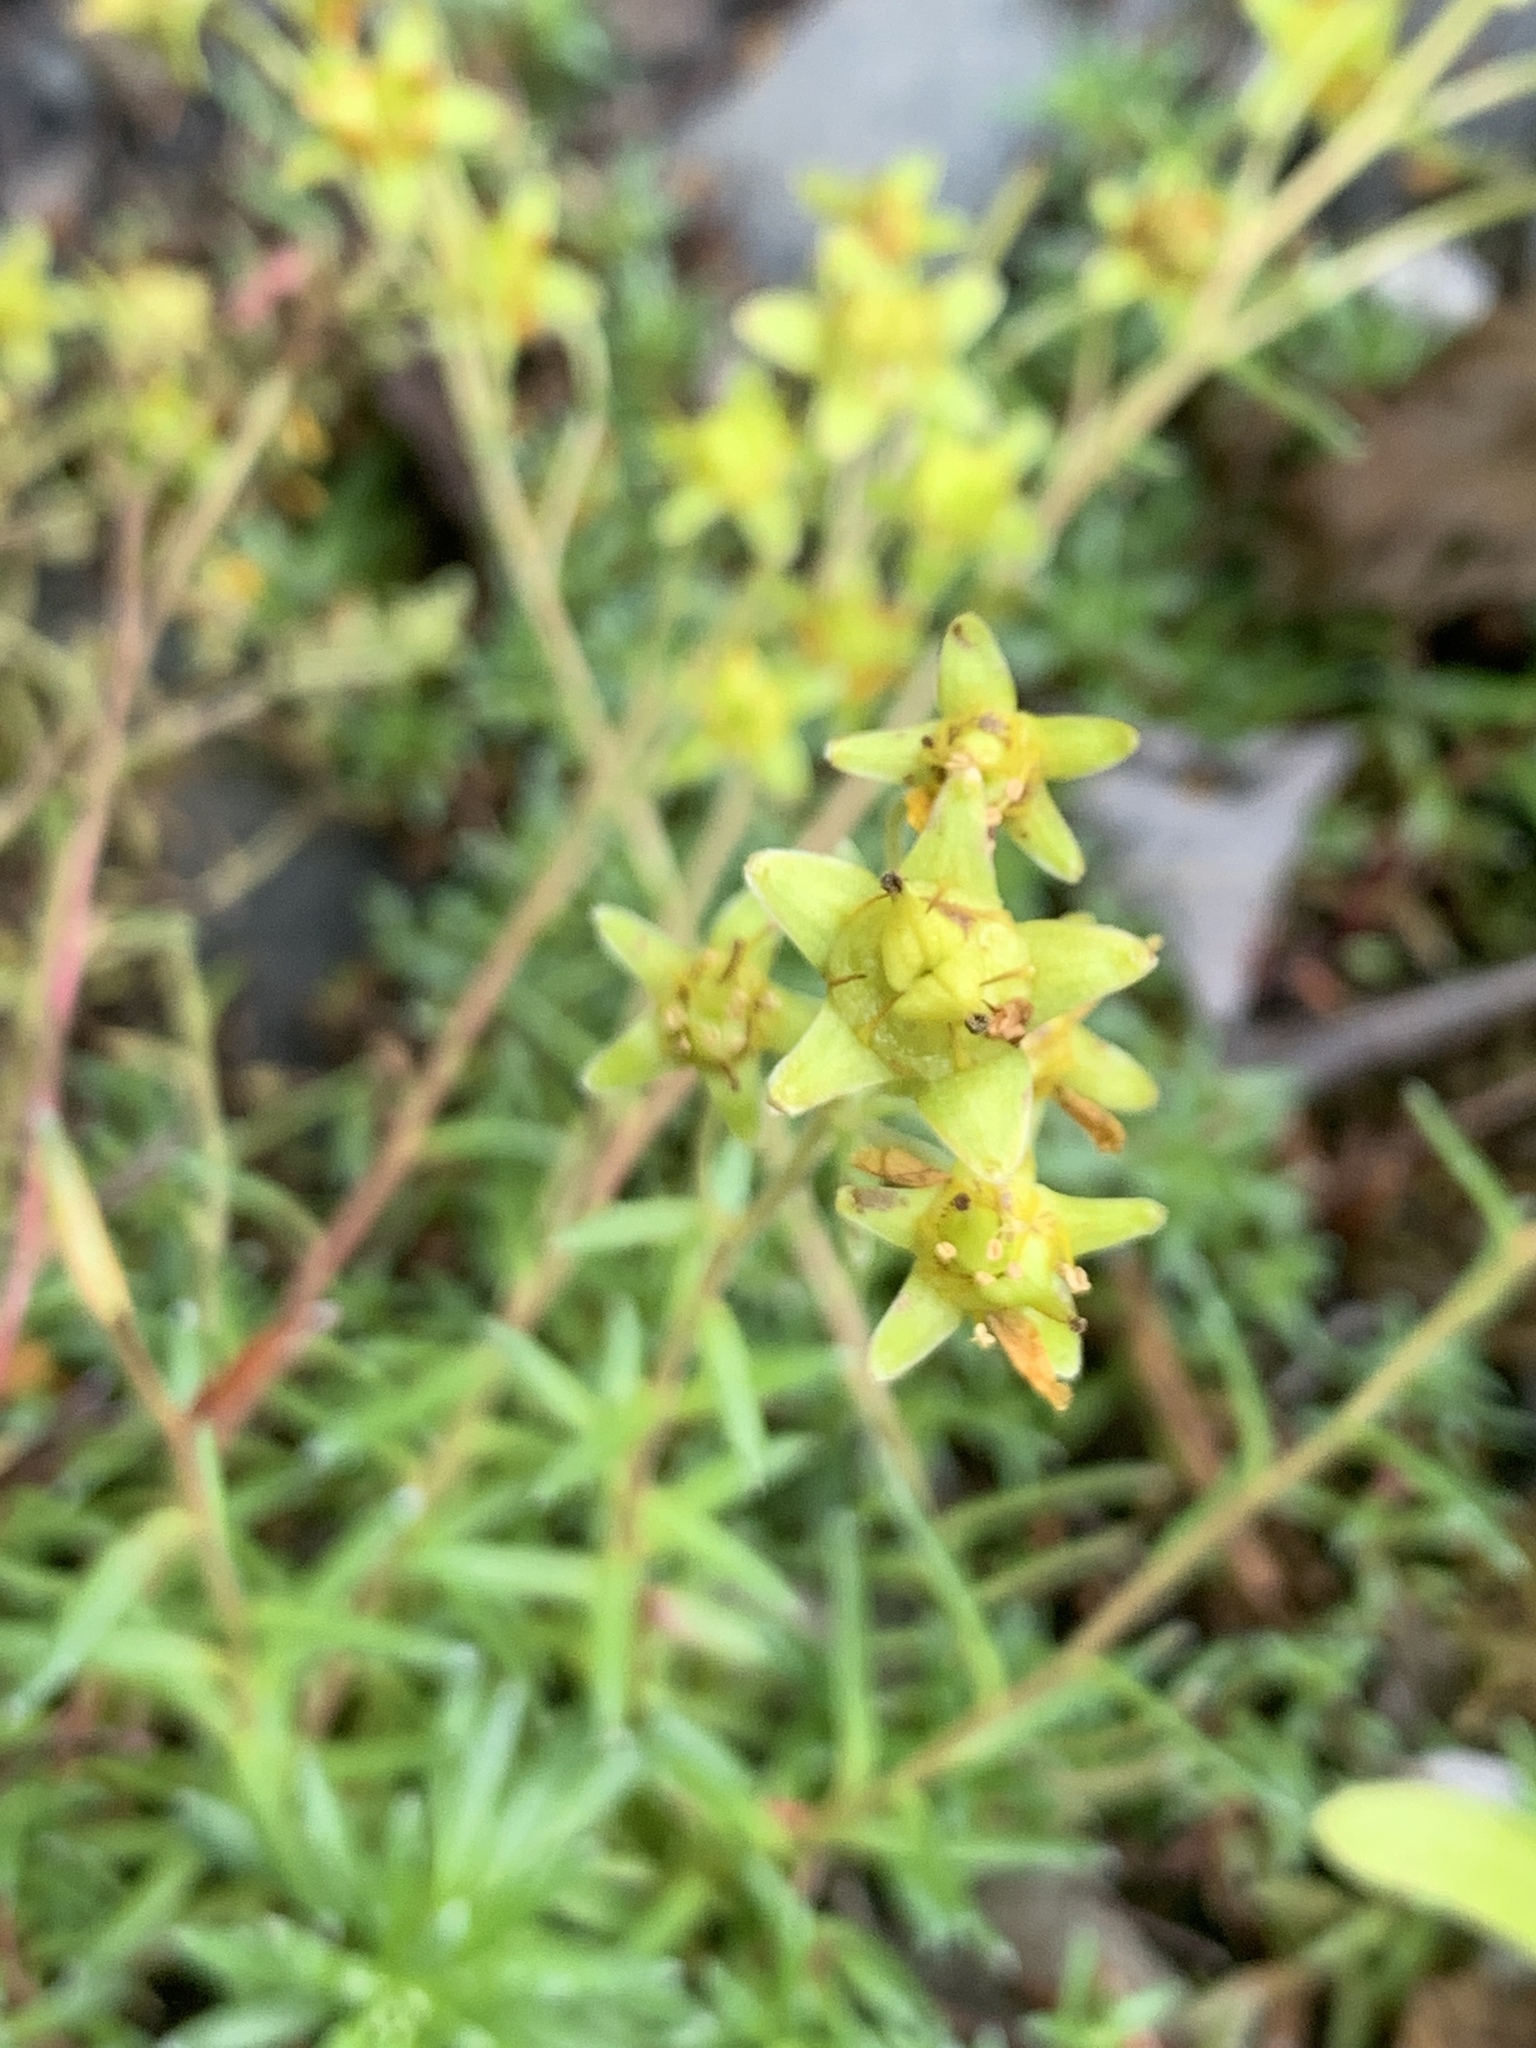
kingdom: Plantae
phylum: Tracheophyta
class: Magnoliopsida
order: Saxifragales
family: Saxifragaceae
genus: Saxifraga
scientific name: Saxifraga aizoides
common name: Yellow mountain saxifrage
